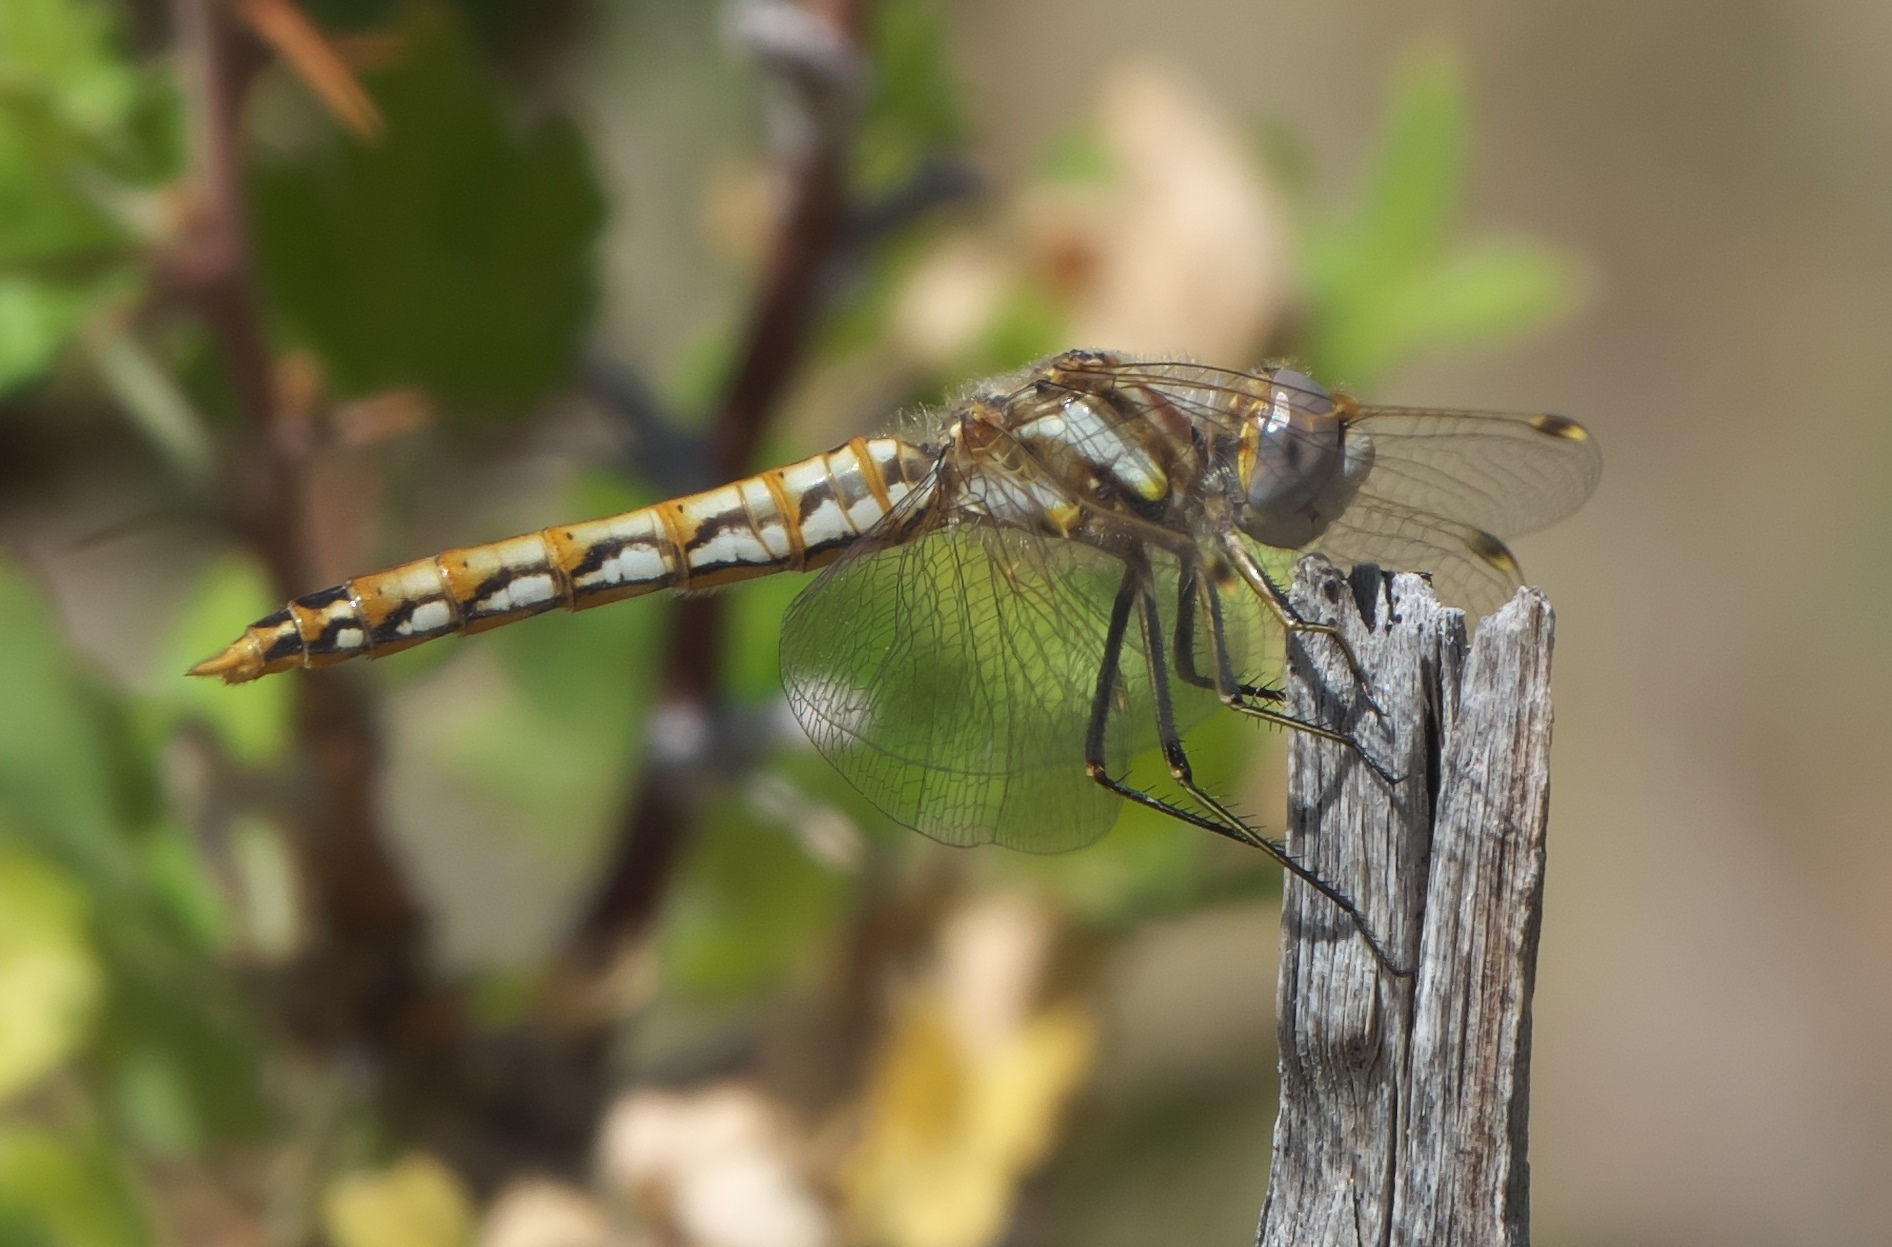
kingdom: Animalia
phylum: Arthropoda
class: Insecta
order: Odonata
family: Libellulidae
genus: Sympetrum
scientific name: Sympetrum corruptum
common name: Variegated meadowhawk
